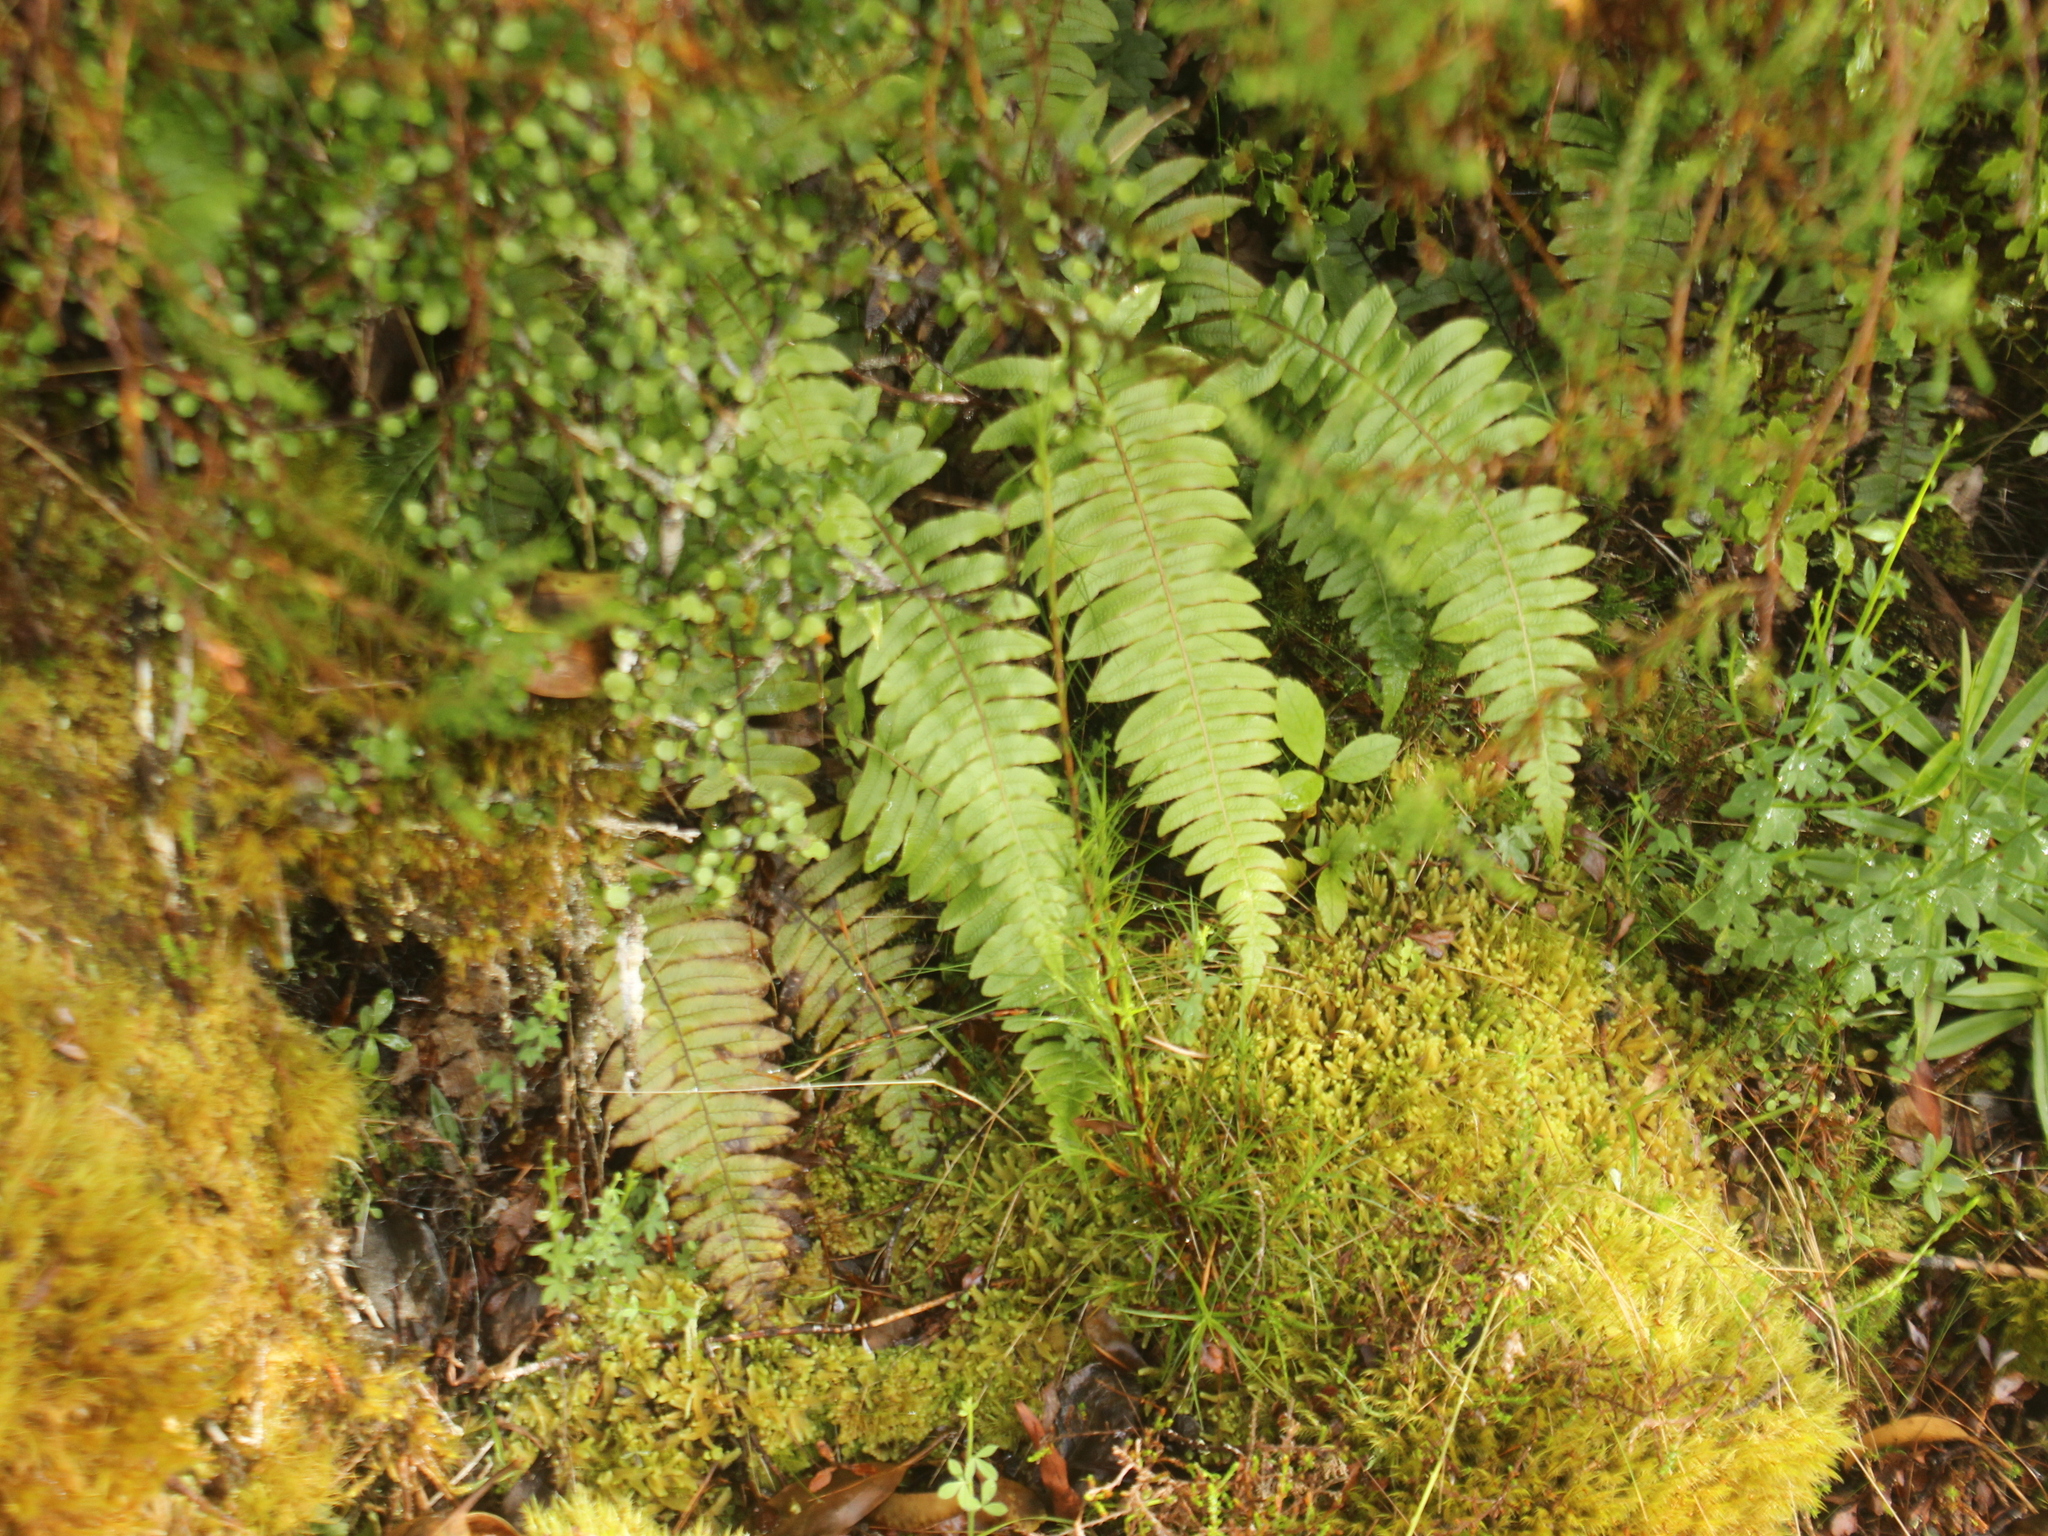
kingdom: Plantae
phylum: Tracheophyta
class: Polypodiopsida
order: Polypodiales
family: Blechnaceae
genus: Cranfillia
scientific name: Cranfillia deltoides
